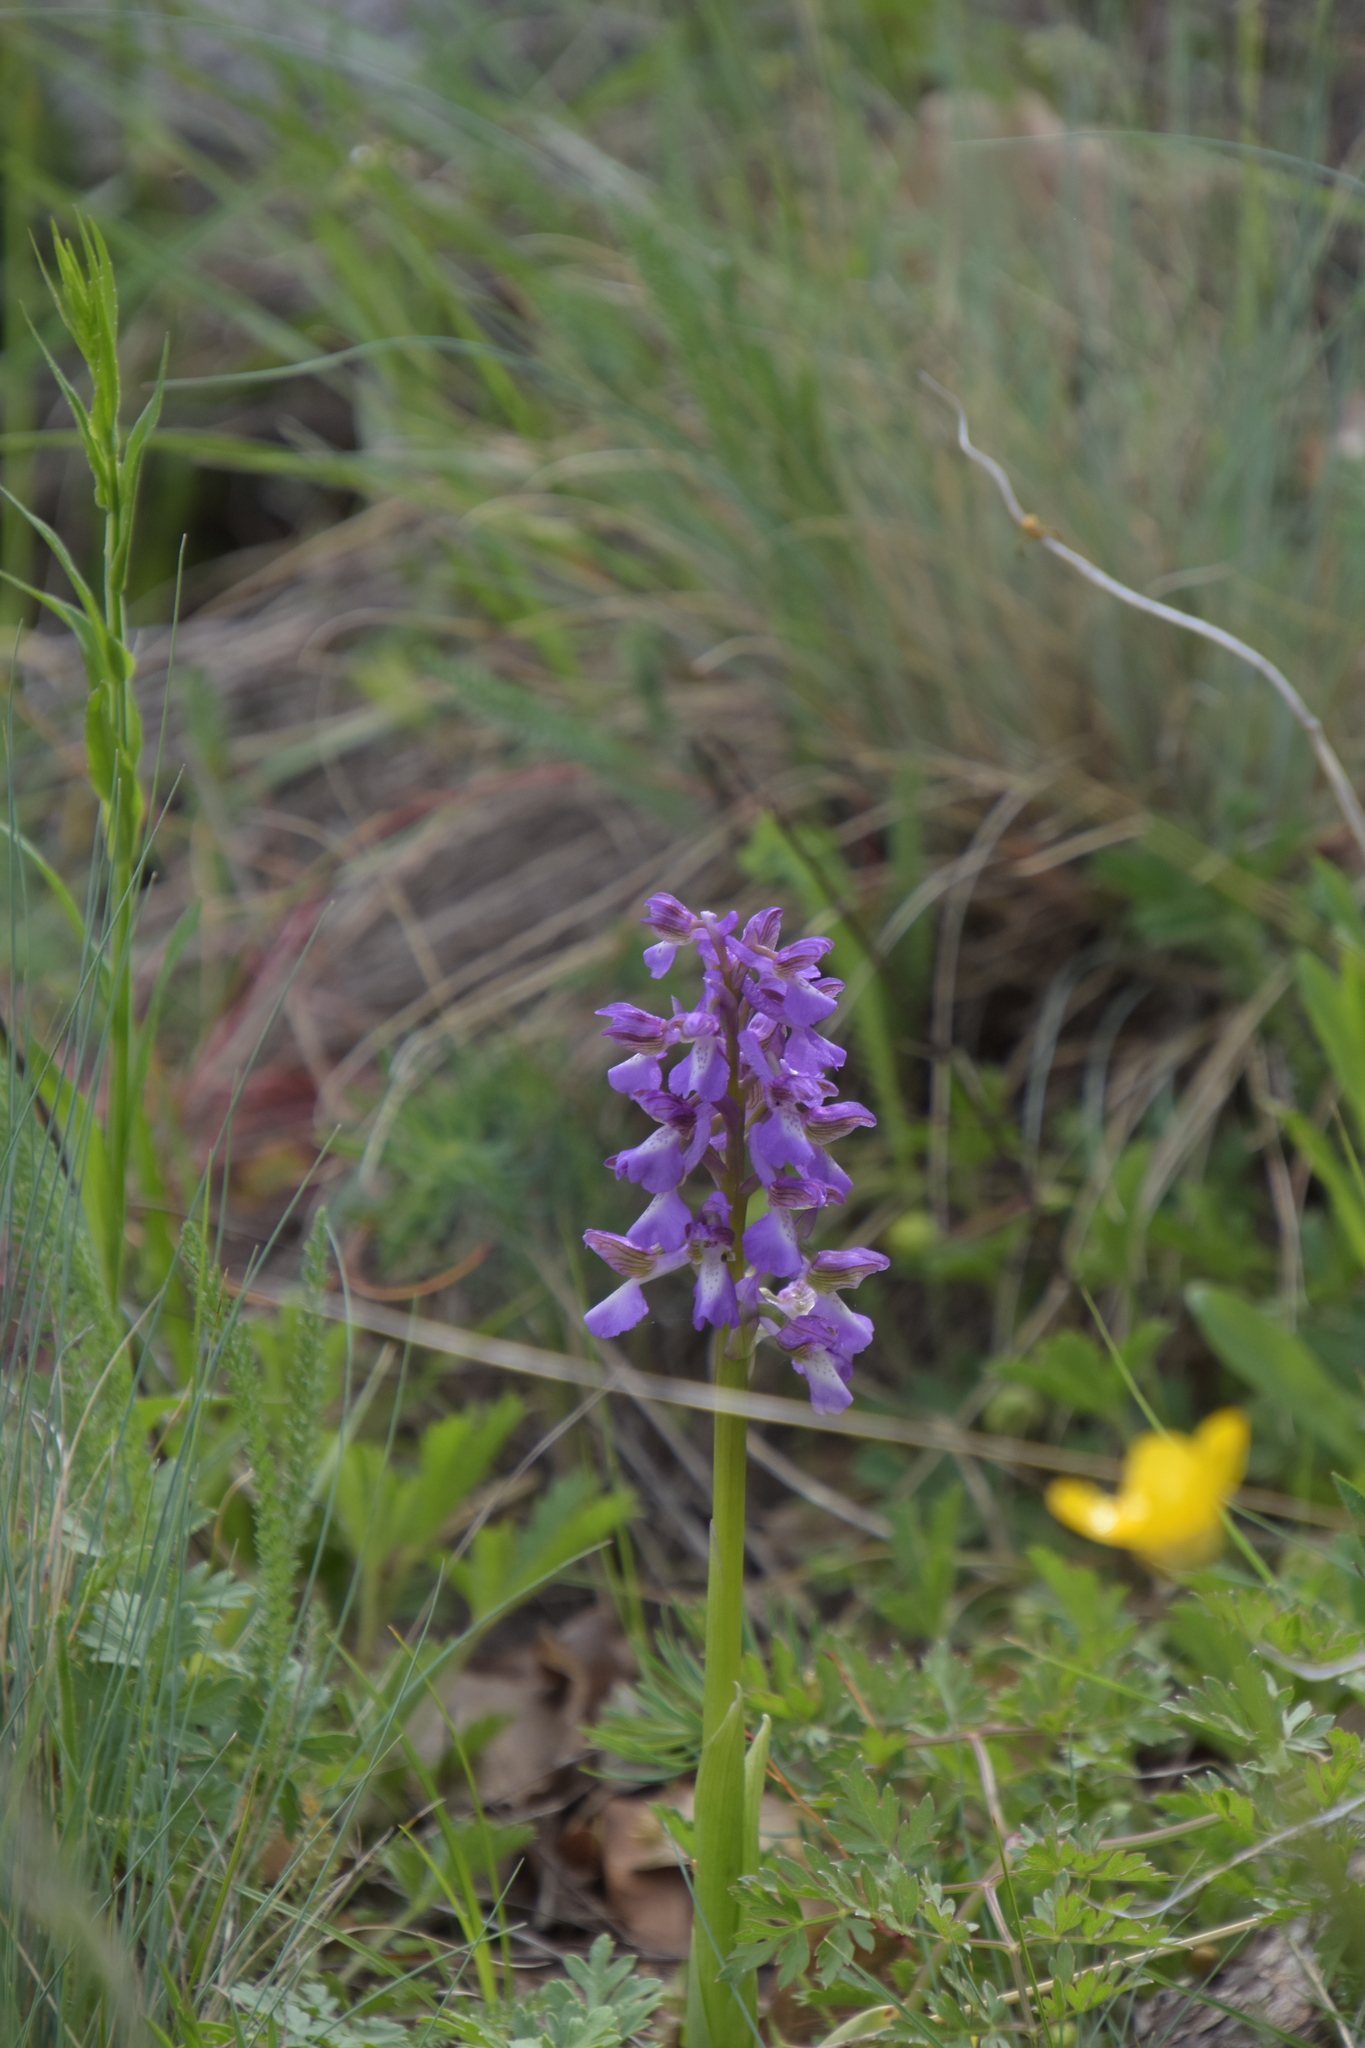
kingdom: Plantae
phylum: Tracheophyta
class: Liliopsida
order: Asparagales
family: Orchidaceae
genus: Anacamptis
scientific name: Anacamptis morio
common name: Green-winged orchid
